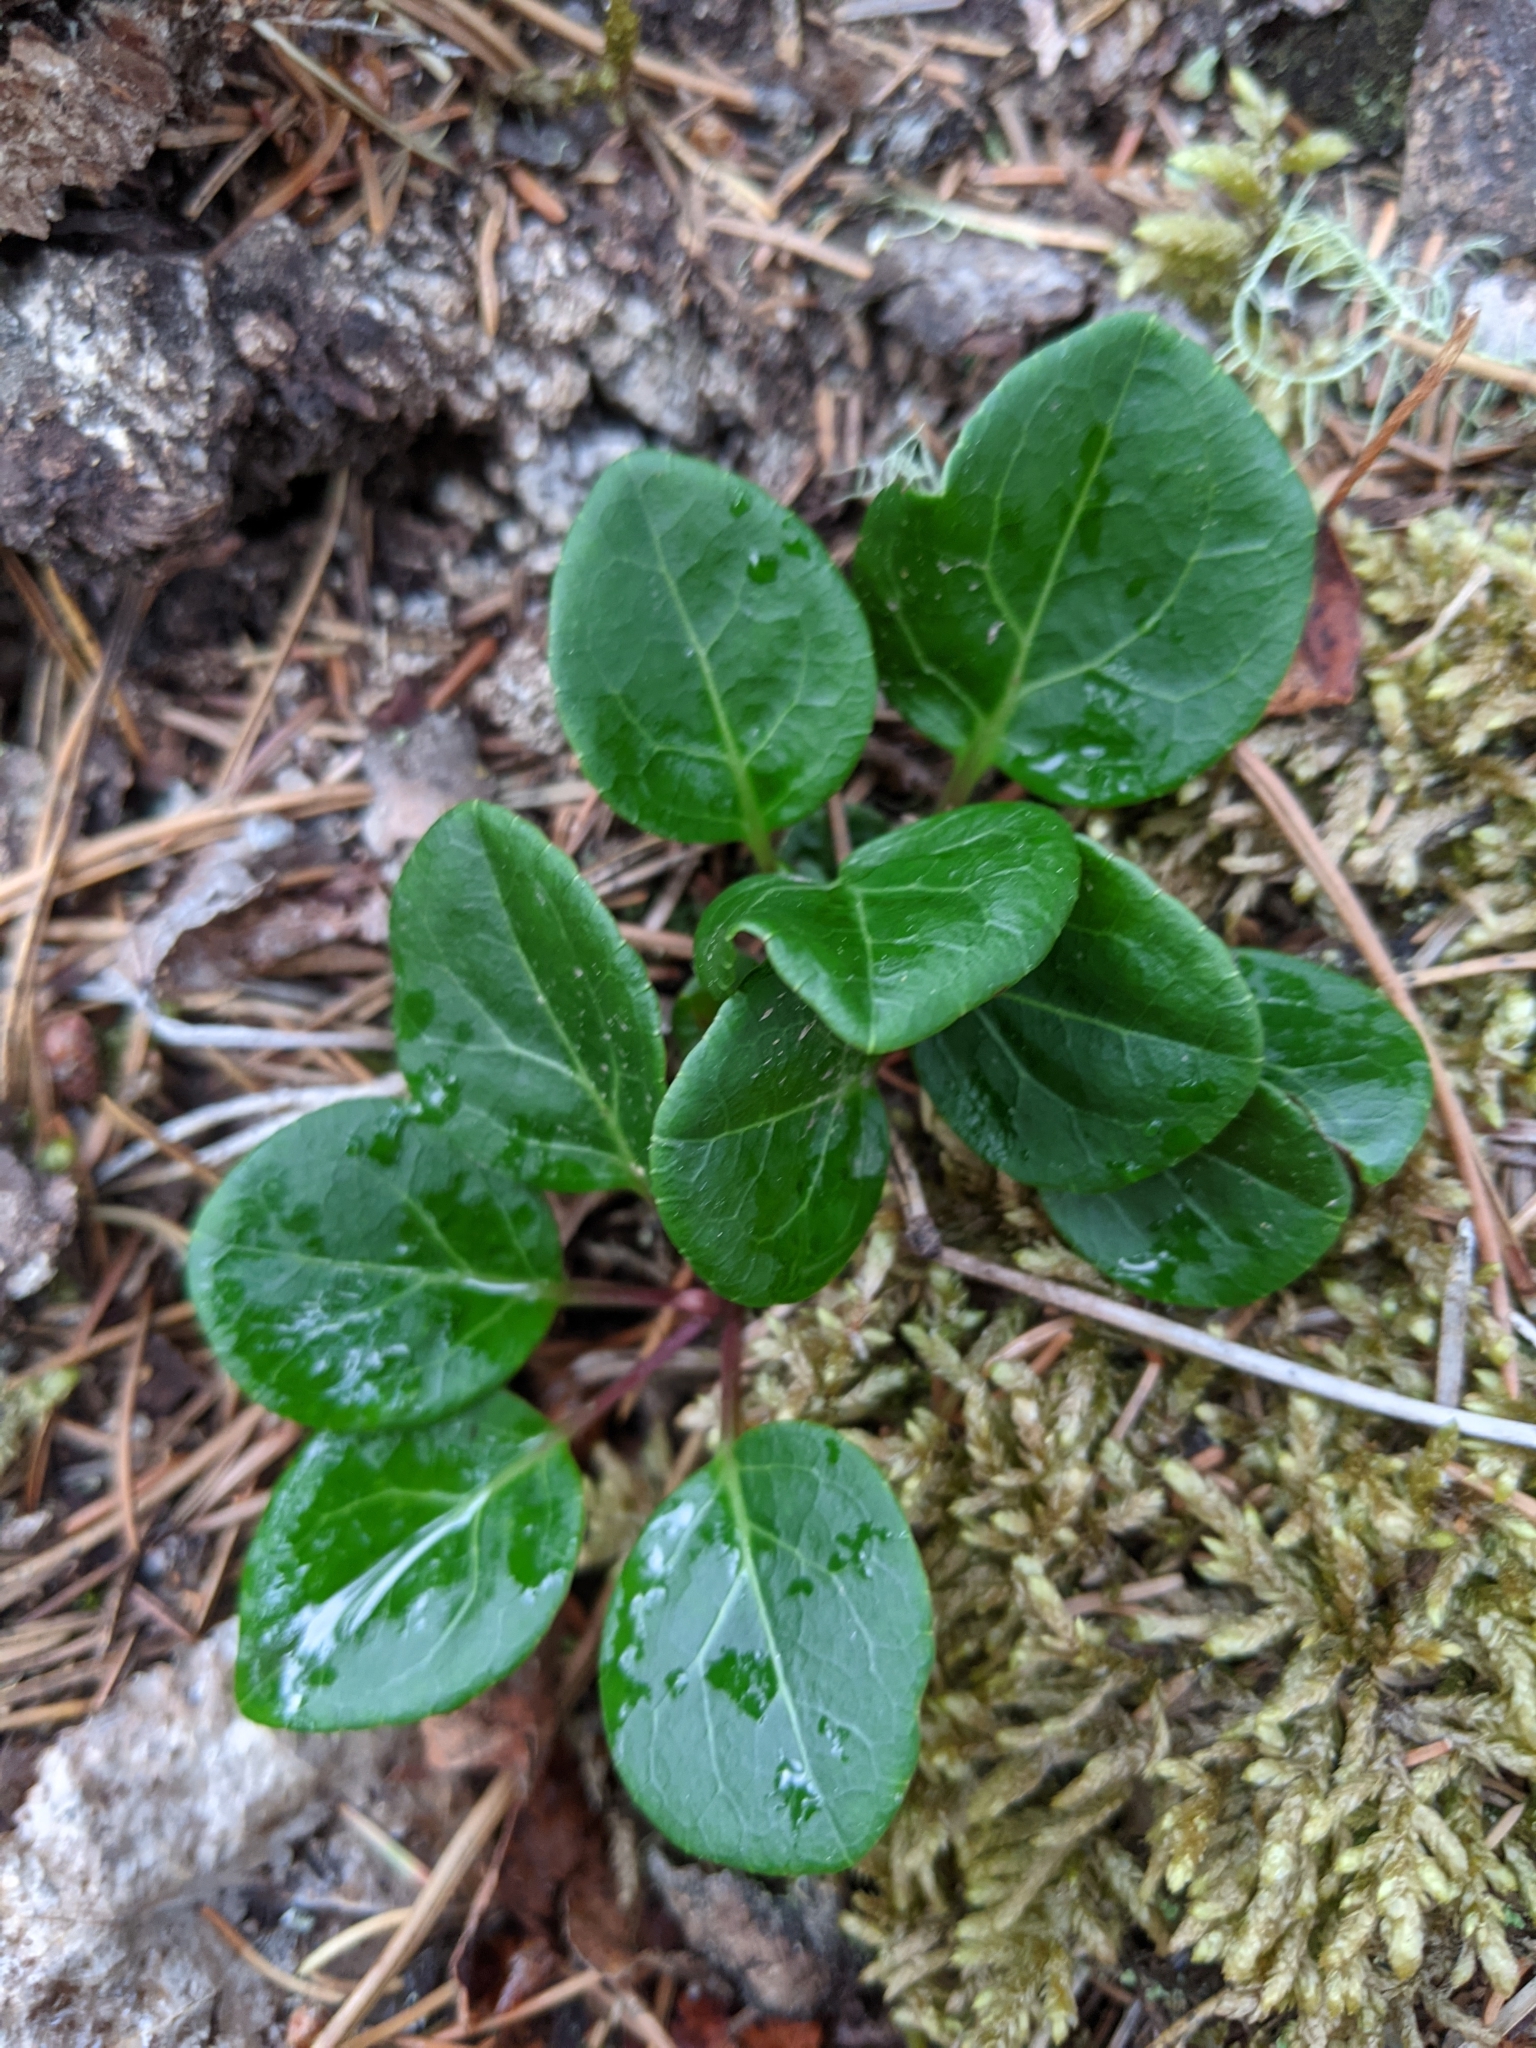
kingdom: Plantae
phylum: Tracheophyta
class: Magnoliopsida
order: Ericales
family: Ericaceae
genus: Pyrola
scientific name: Pyrola chlorantha
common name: Green wintergreen
